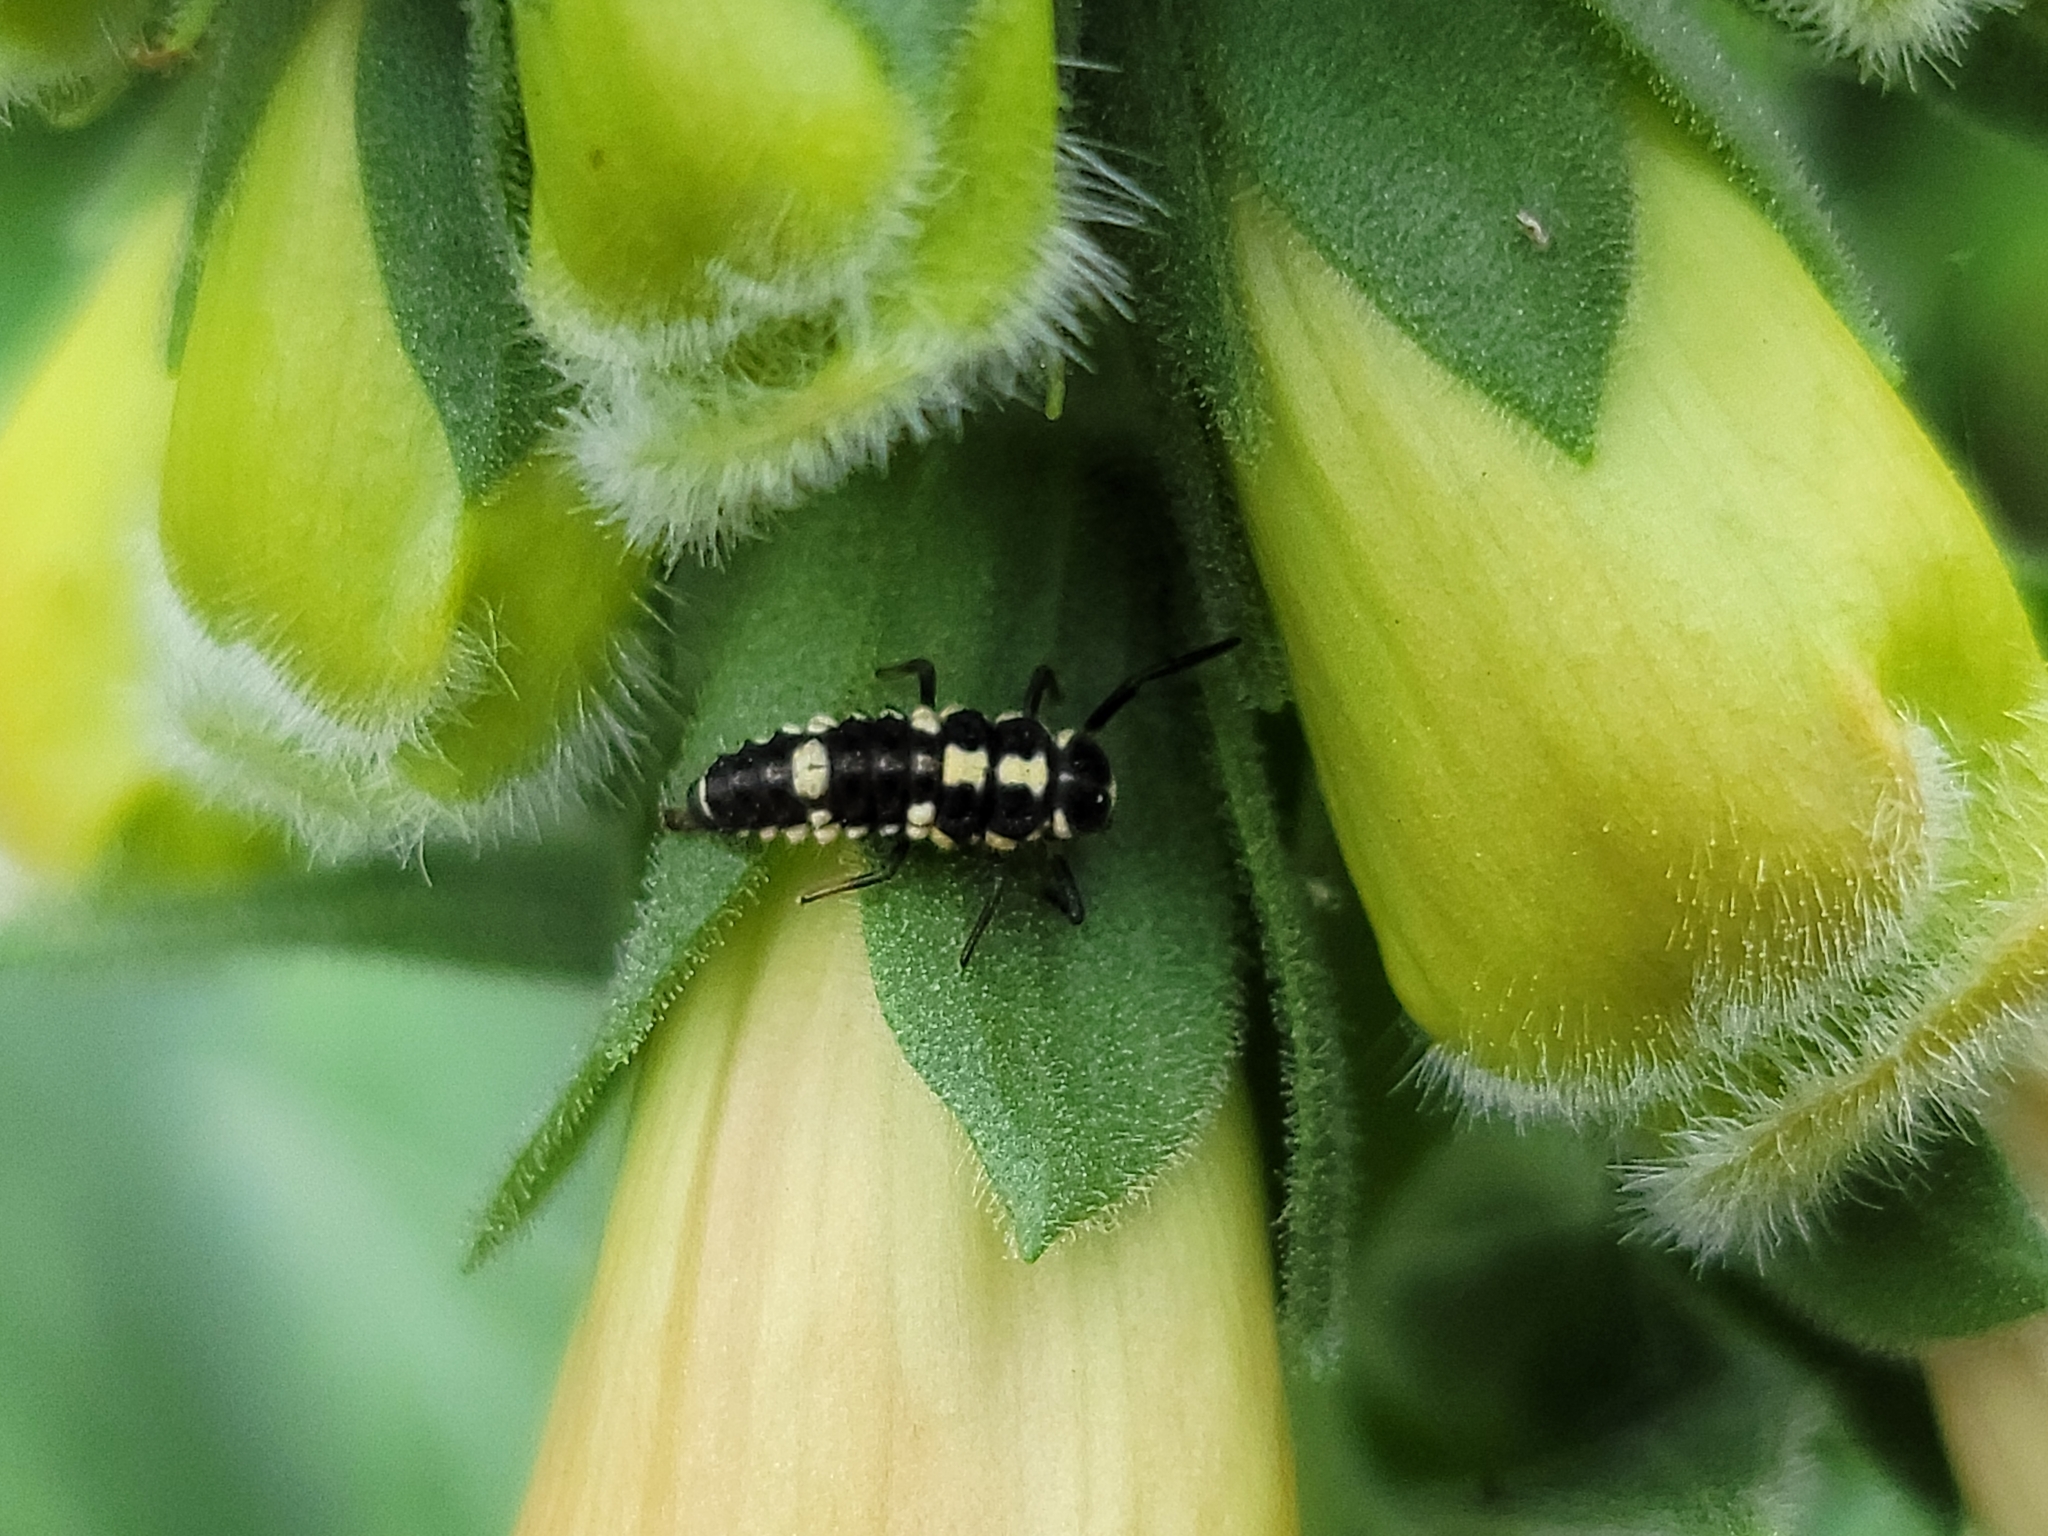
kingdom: Animalia
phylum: Arthropoda
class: Insecta
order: Coleoptera
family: Coccinellidae
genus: Propylaea
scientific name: Propylaea quatuordecimpunctata
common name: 14-spotted ladybird beetle
